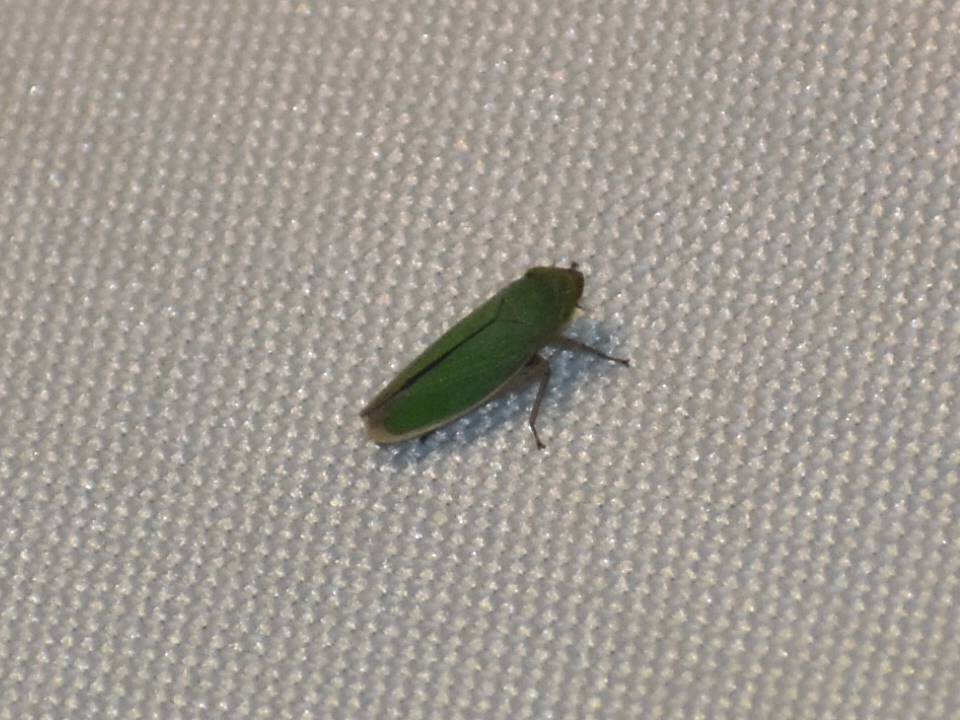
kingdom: Animalia
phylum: Arthropoda
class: Insecta
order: Hemiptera
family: Cicadellidae
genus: Helochara
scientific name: Helochara communis
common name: Bog leafhopper
